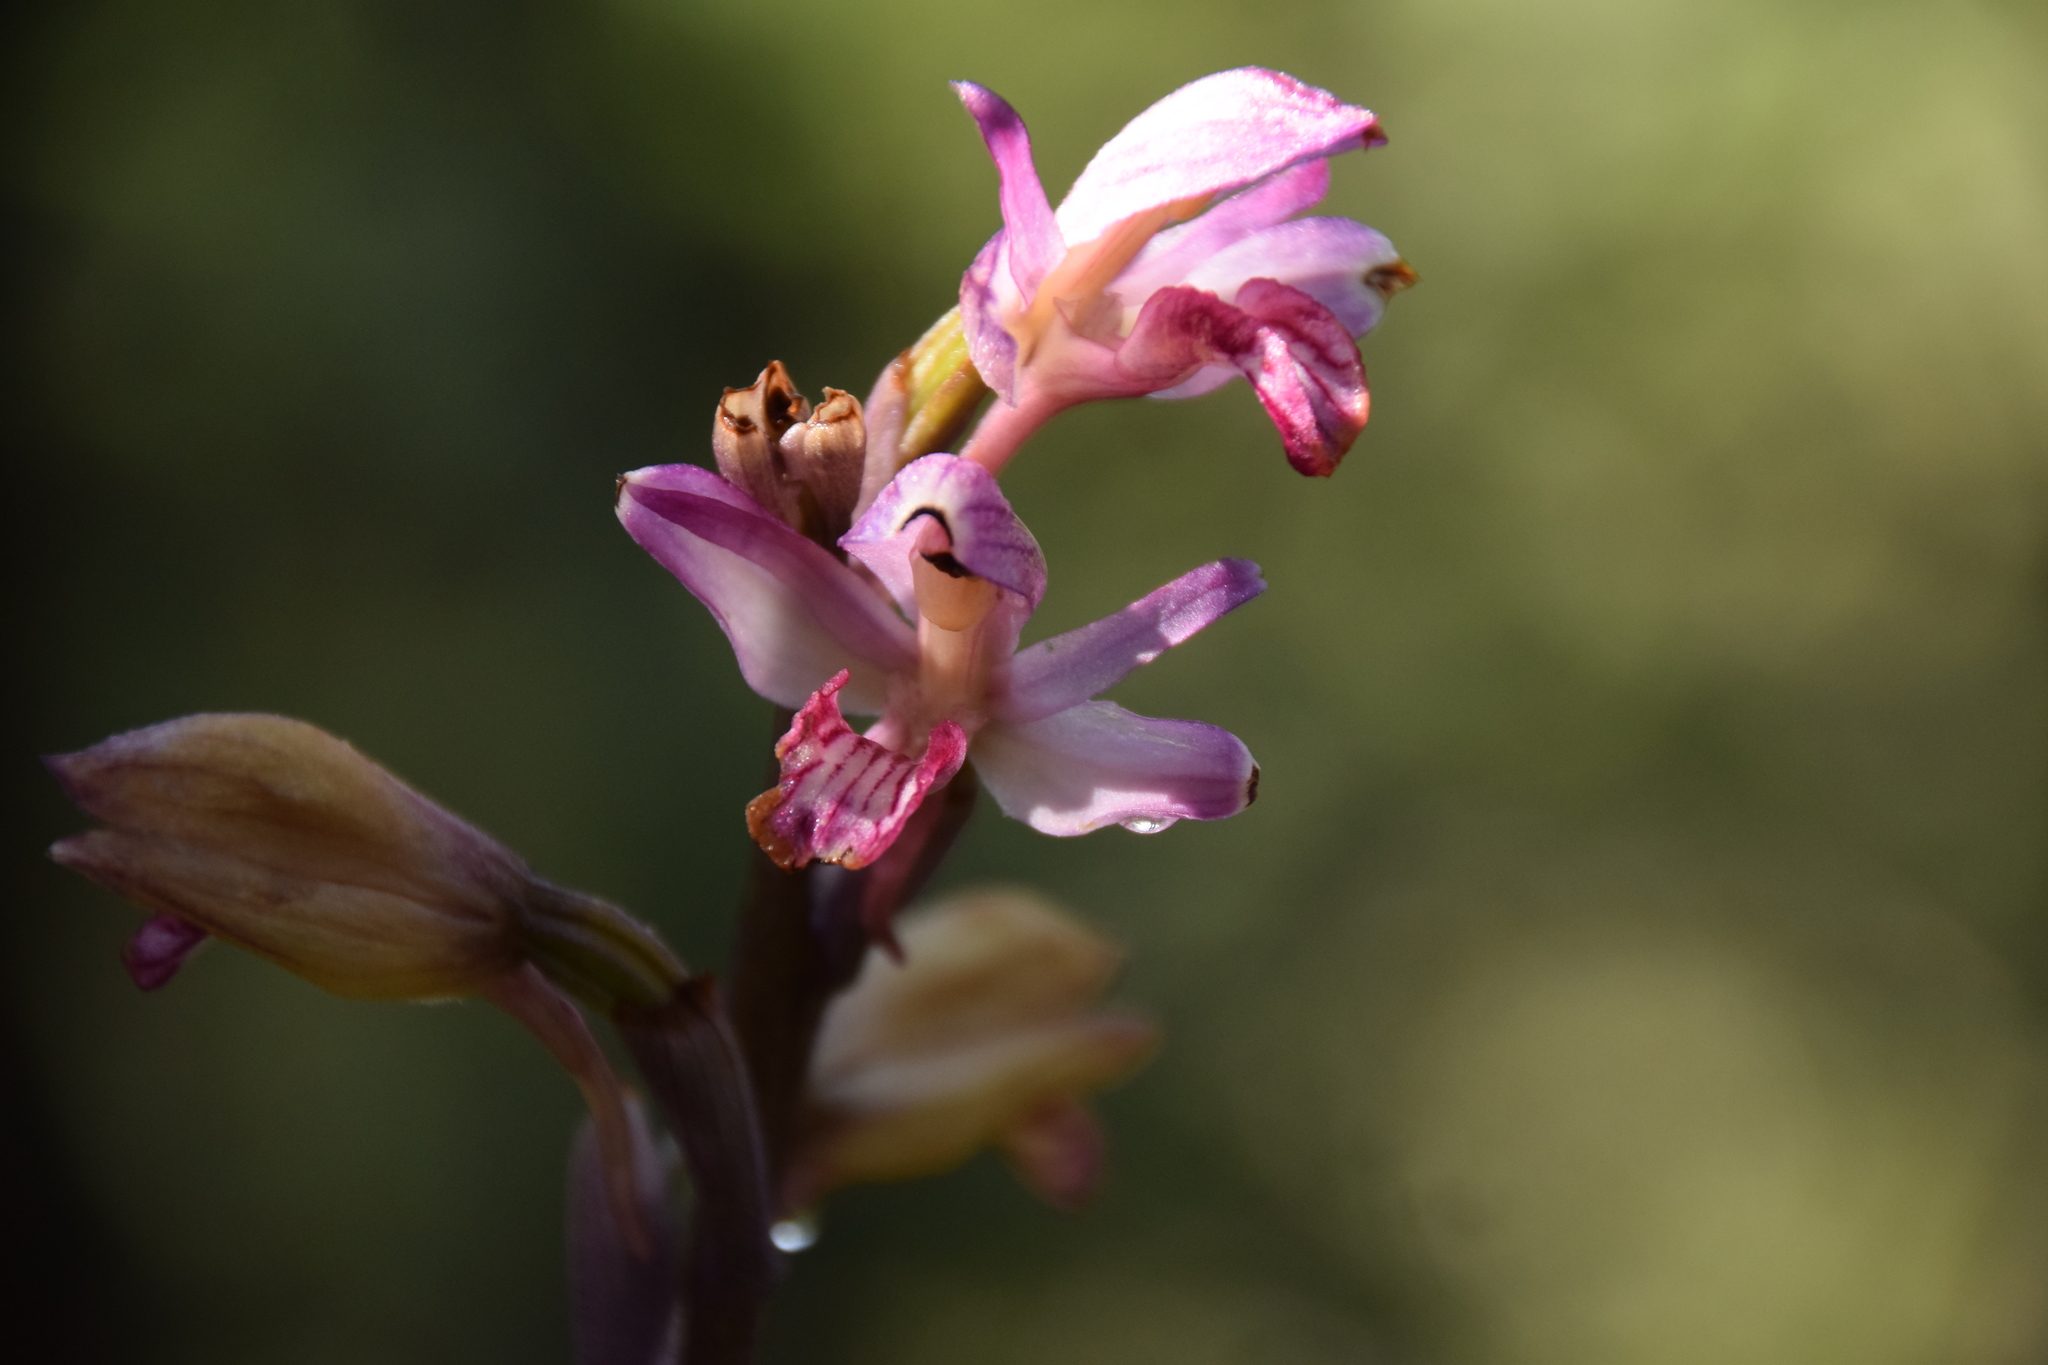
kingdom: Plantae
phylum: Tracheophyta
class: Liliopsida
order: Asparagales
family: Orchidaceae
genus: Limodorum
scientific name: Limodorum abortivum
